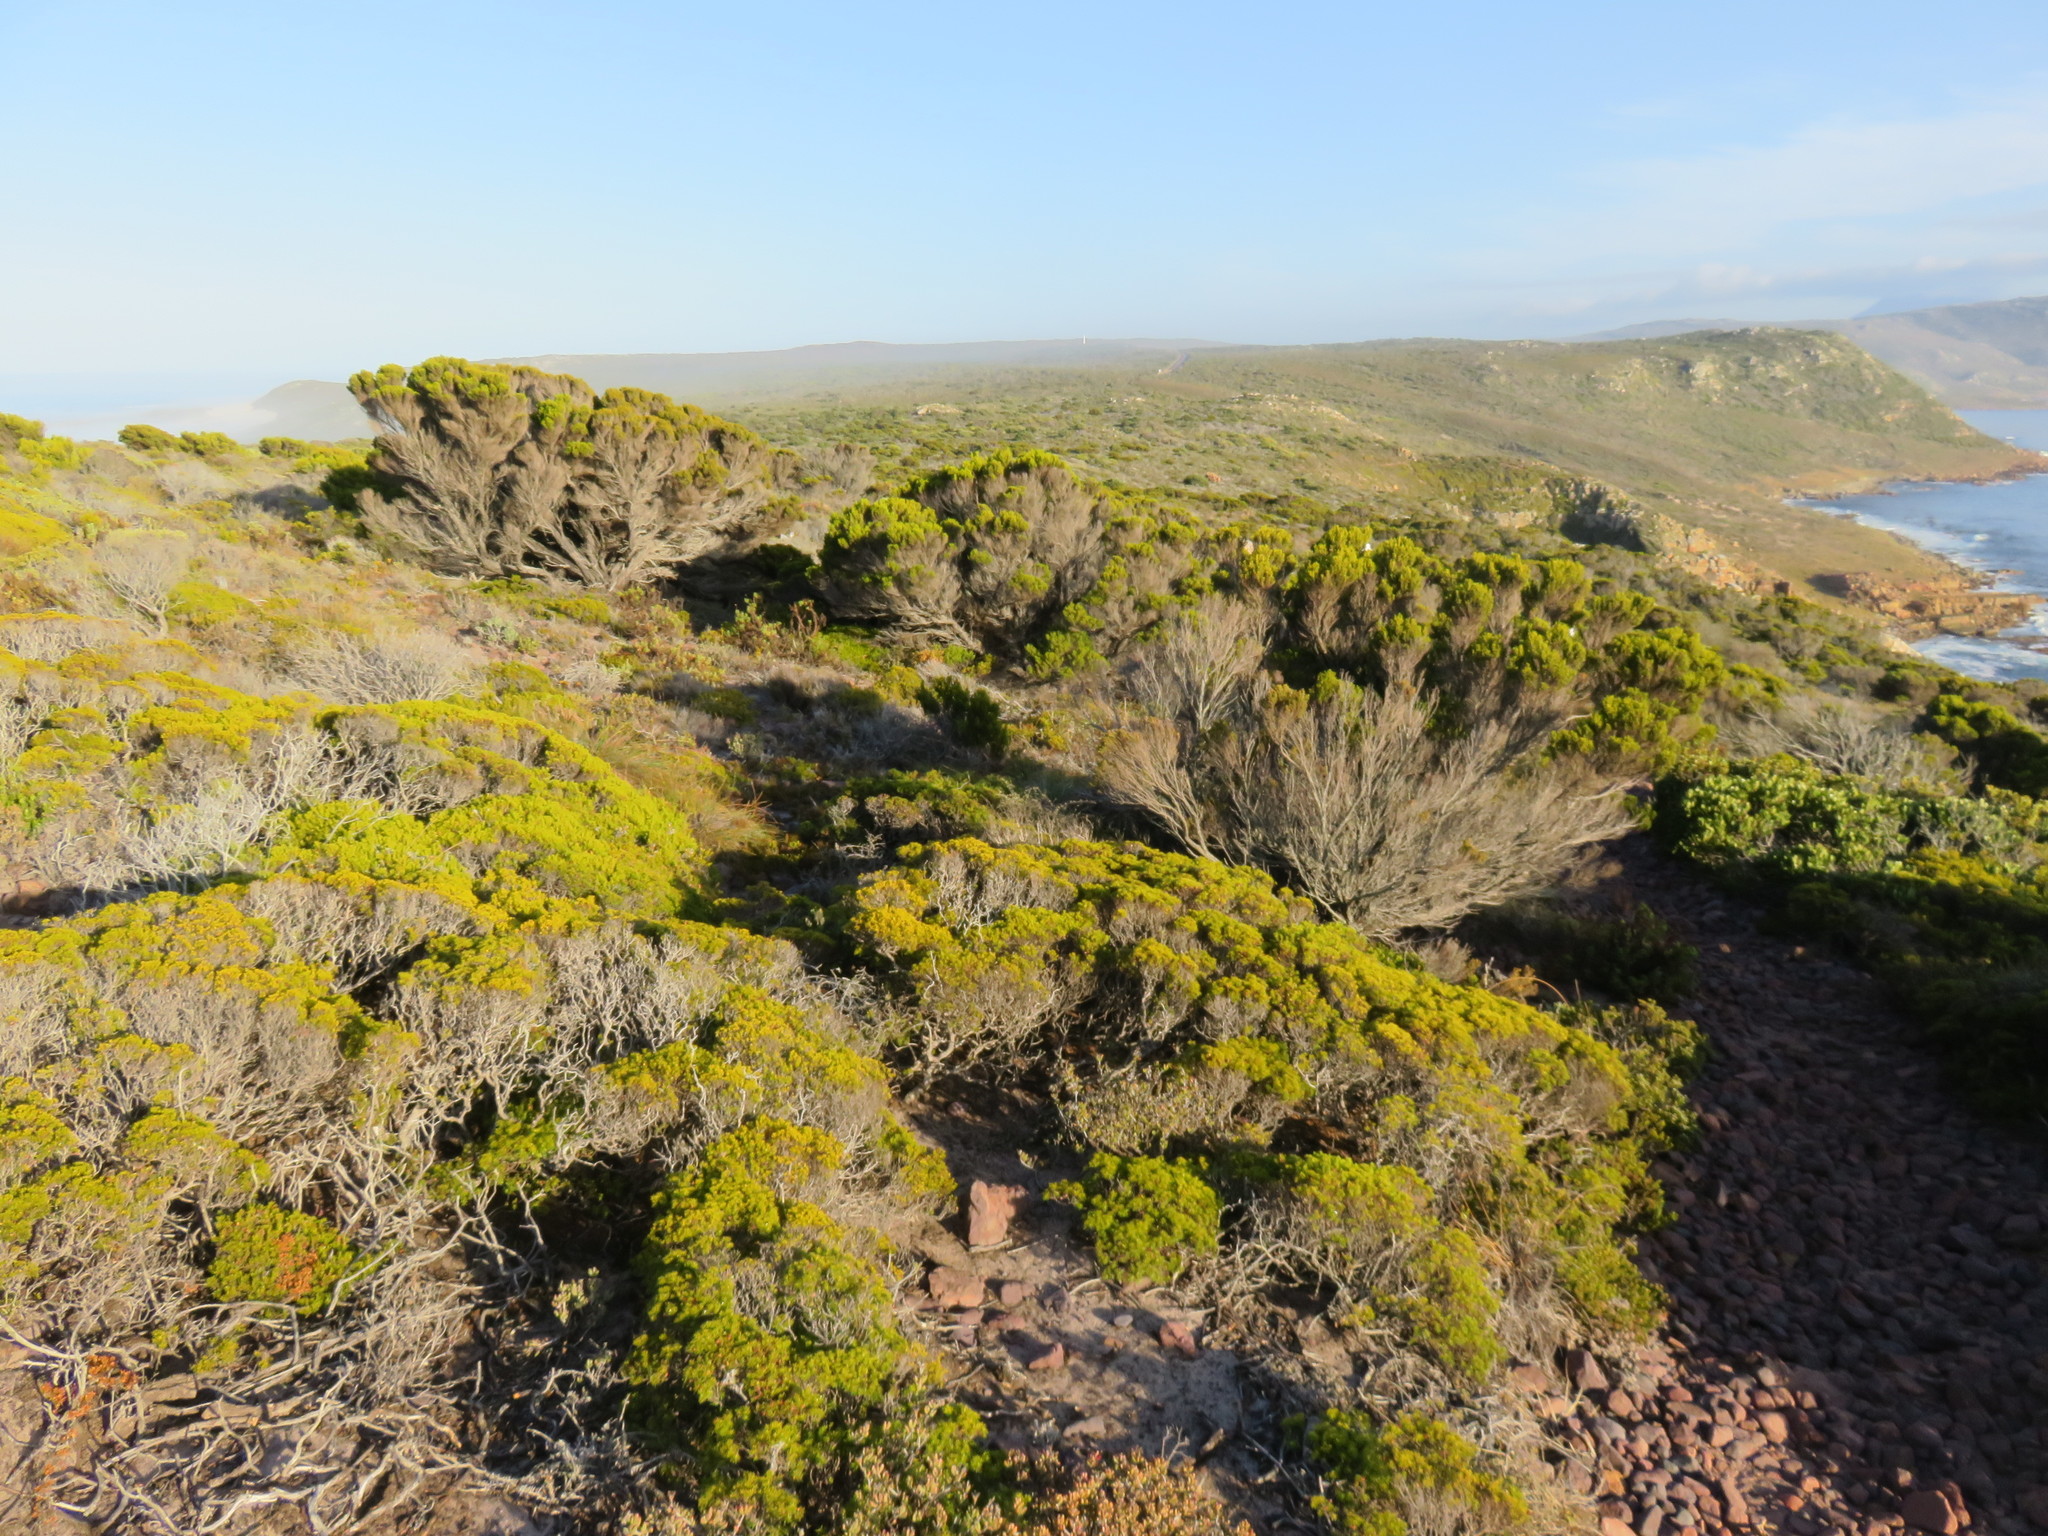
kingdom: Plantae
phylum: Tracheophyta
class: Magnoliopsida
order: Ericales
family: Ericaceae
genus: Erica
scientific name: Erica tristis
